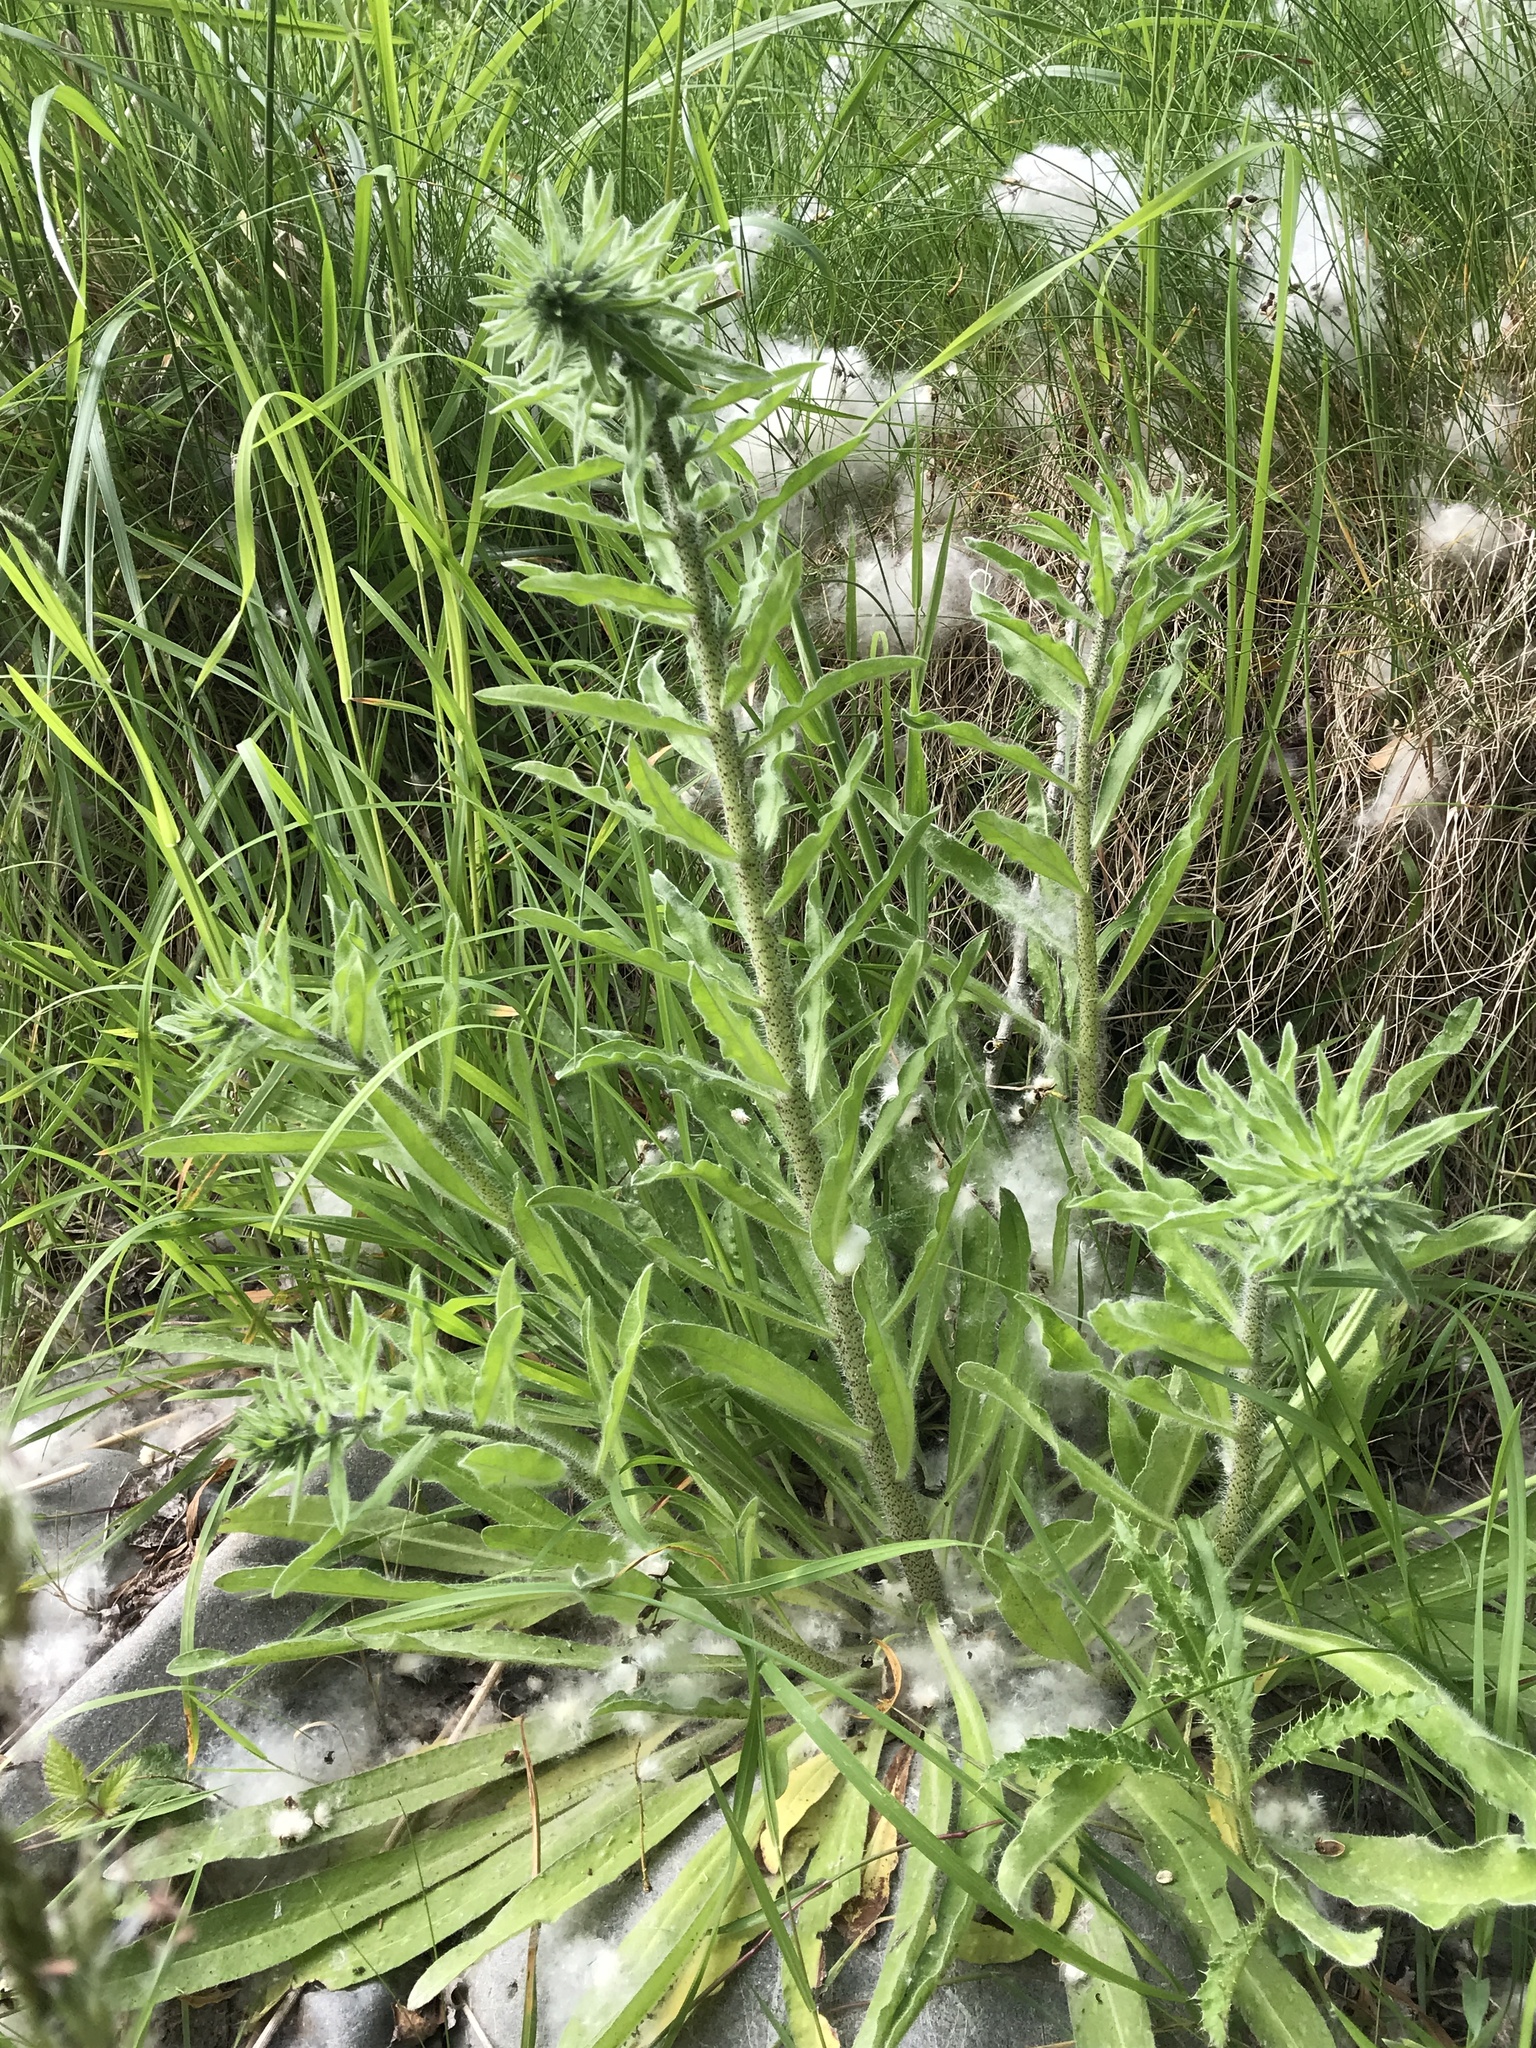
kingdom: Plantae
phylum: Tracheophyta
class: Magnoliopsida
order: Boraginales
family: Boraginaceae
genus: Echium
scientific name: Echium vulgare
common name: Common viper's bugloss
